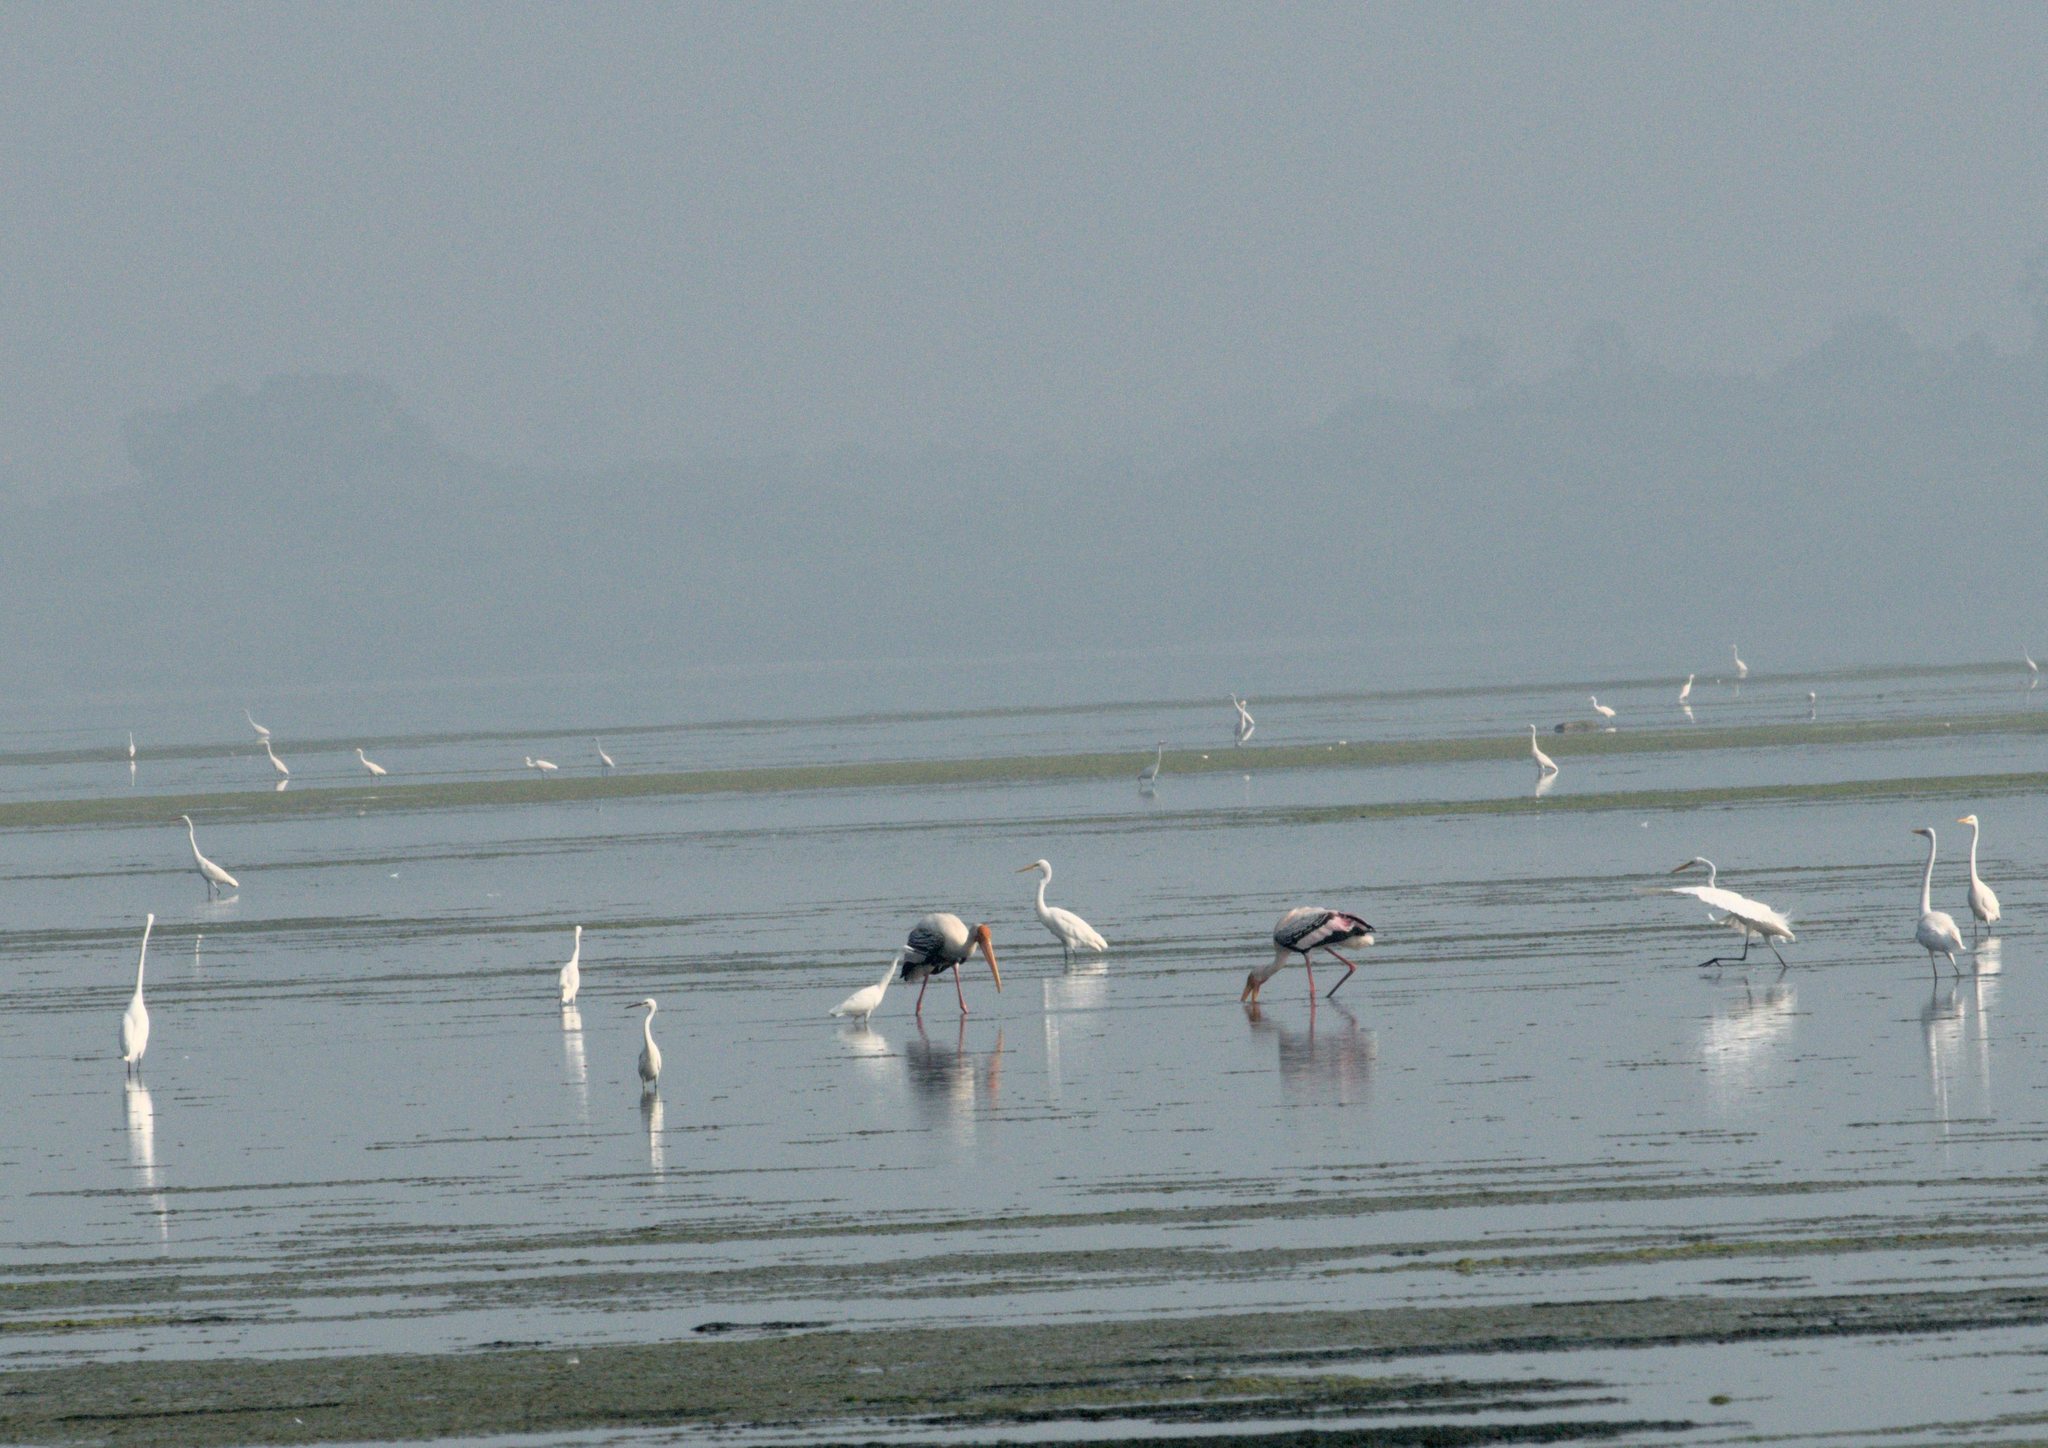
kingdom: Animalia
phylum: Chordata
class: Aves
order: Ciconiiformes
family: Ciconiidae
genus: Mycteria
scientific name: Mycteria leucocephala
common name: Painted stork
